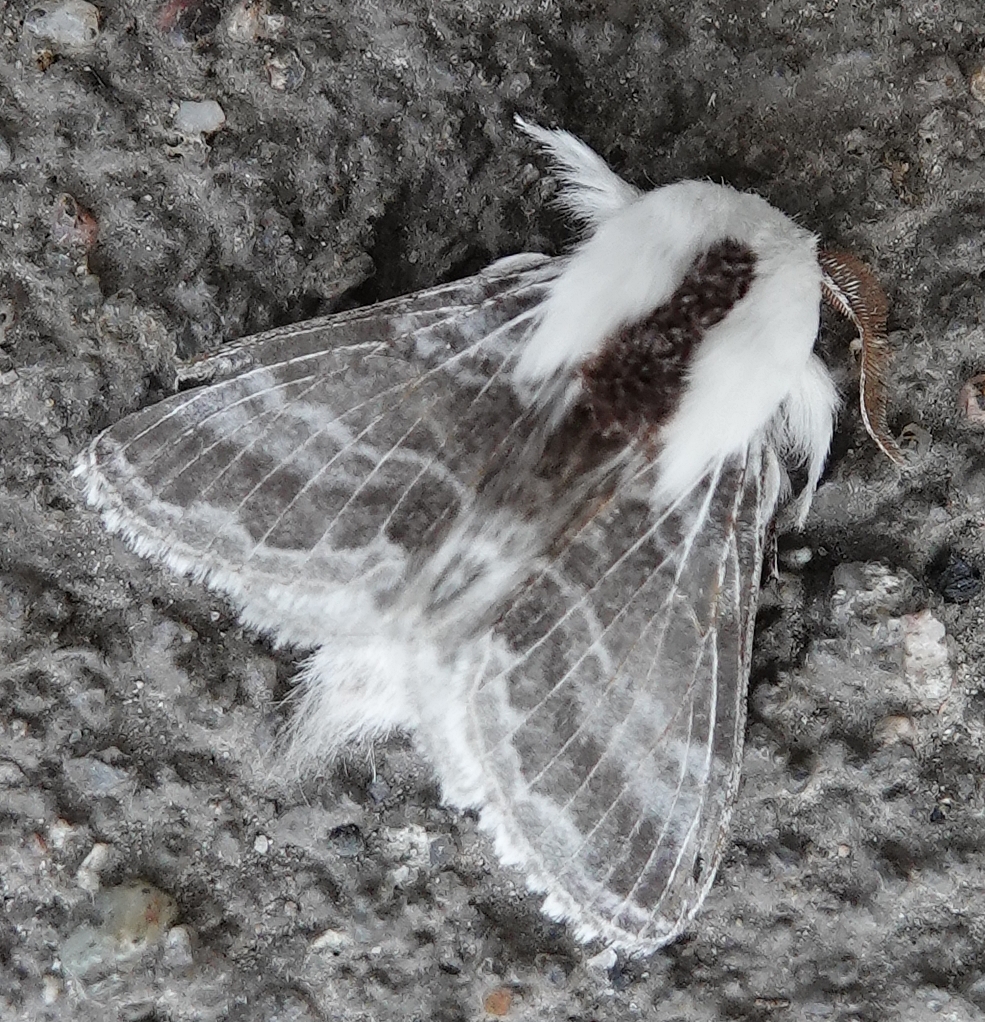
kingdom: Animalia
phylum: Arthropoda
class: Insecta
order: Lepidoptera
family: Lasiocampidae
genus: Tolype
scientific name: Tolype velleda
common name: Large tolype moth
